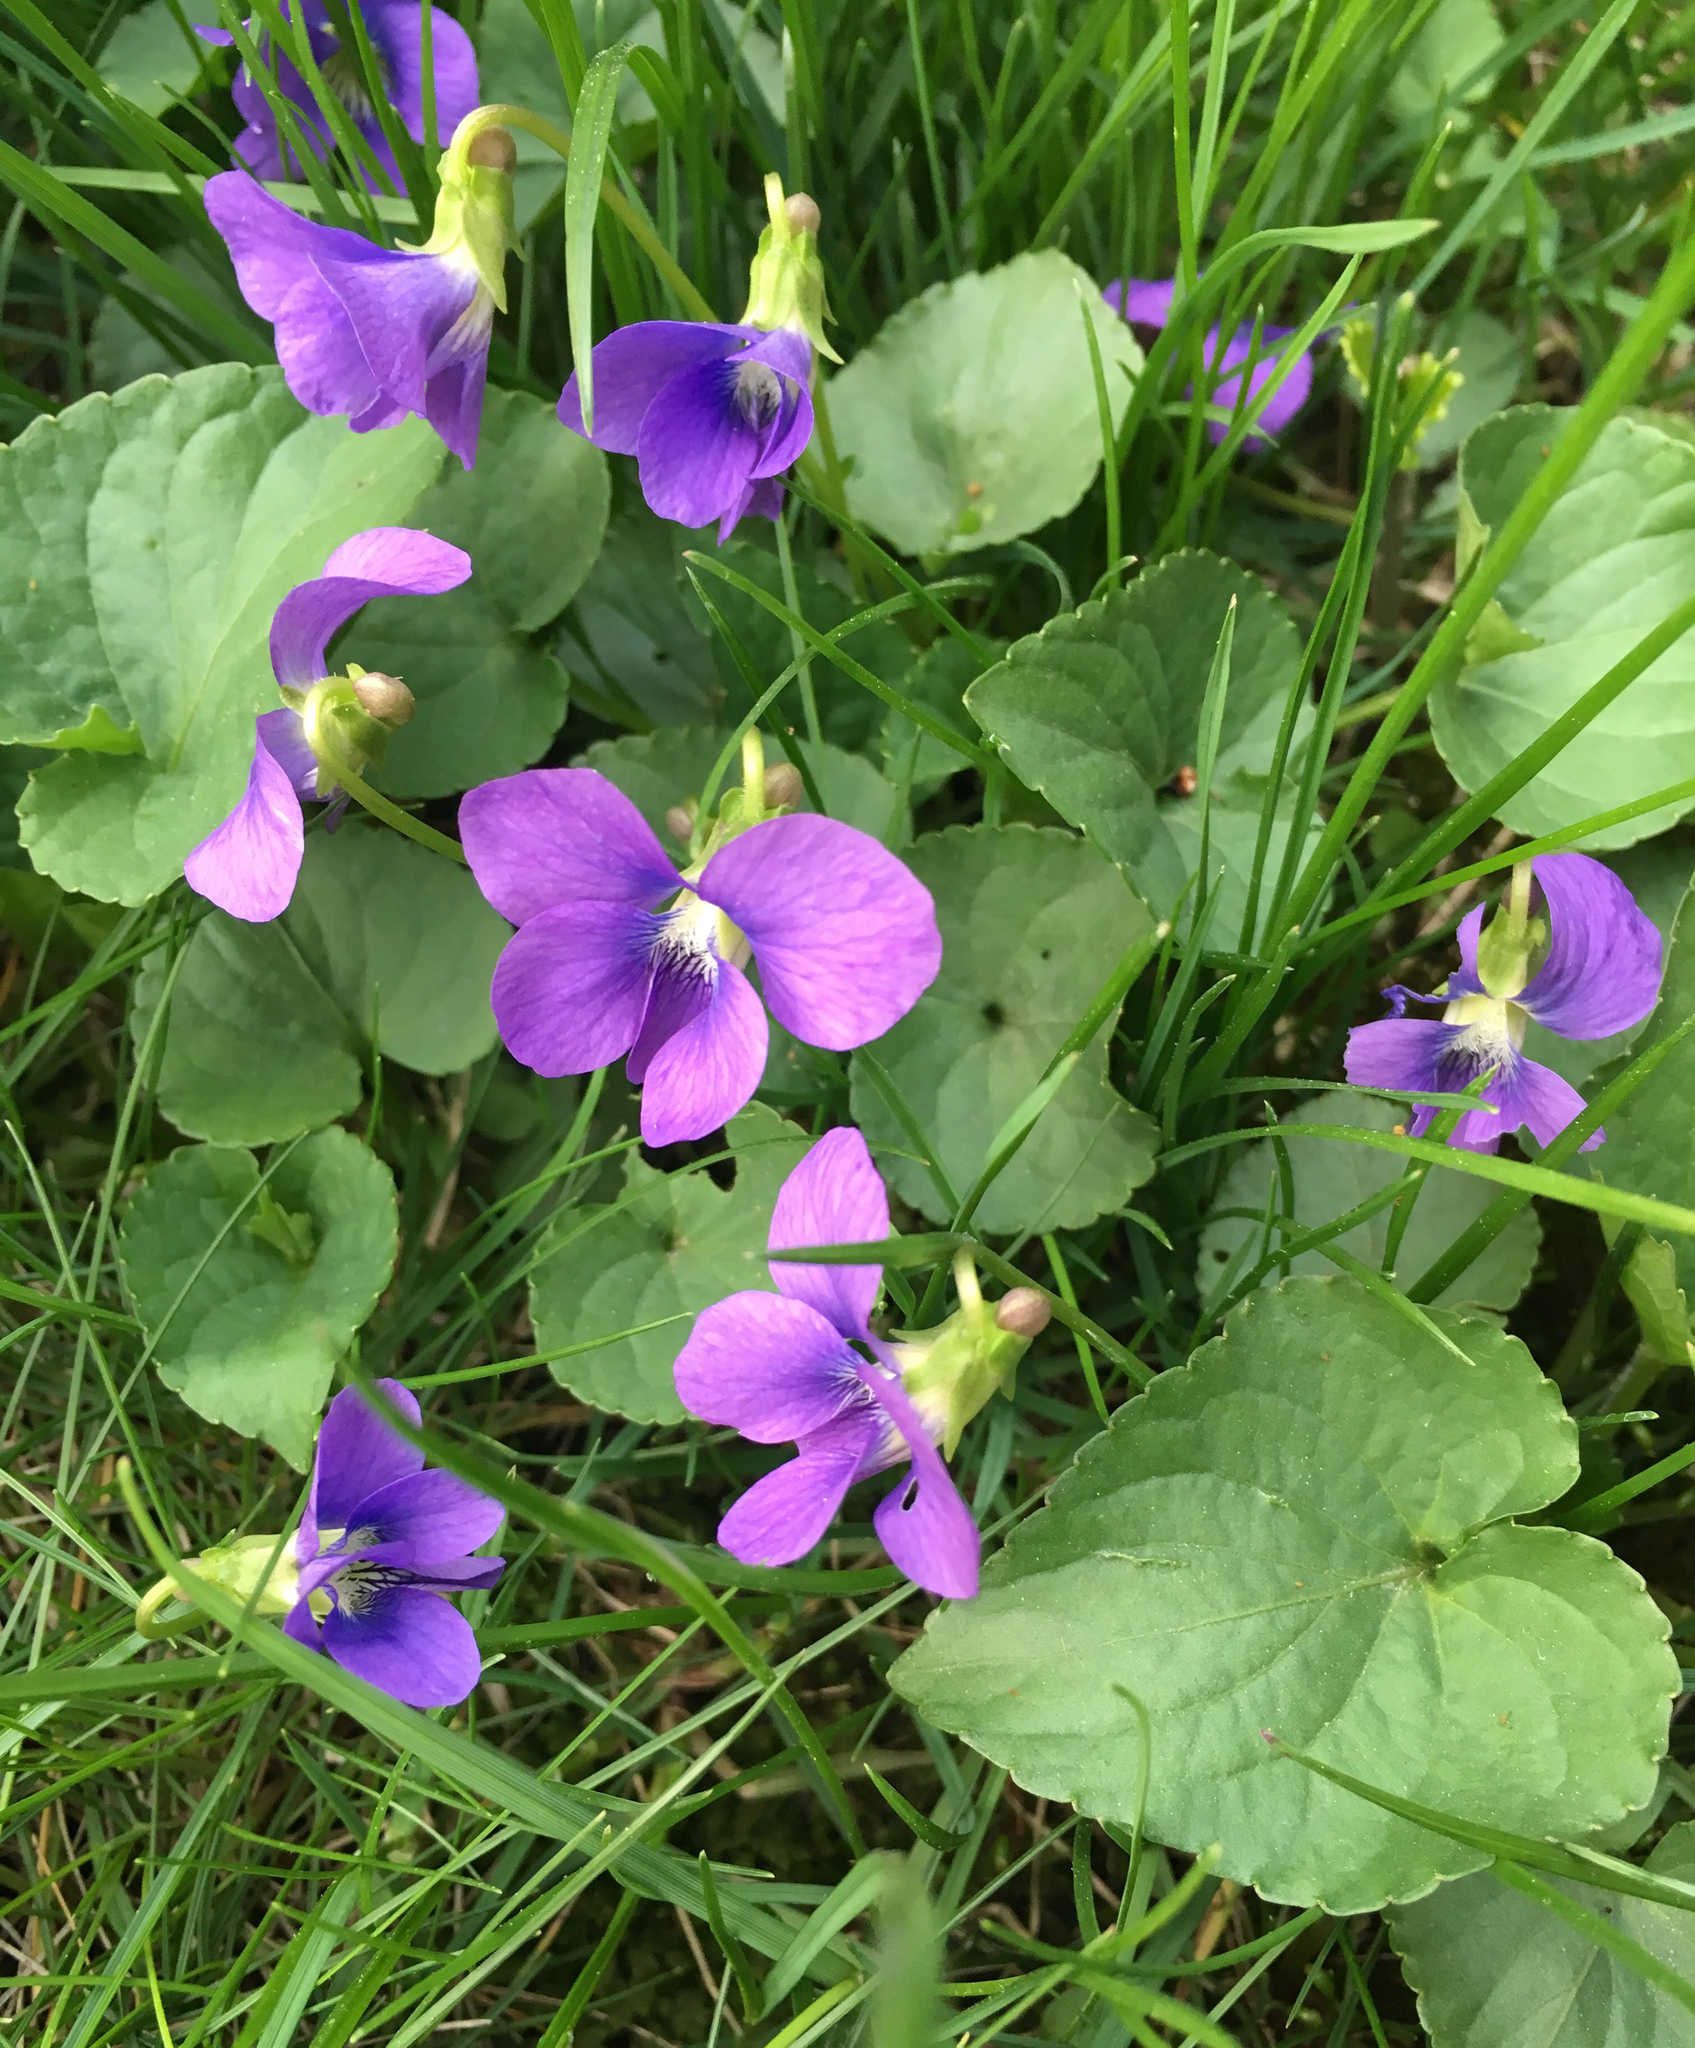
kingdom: Plantae
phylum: Tracheophyta
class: Magnoliopsida
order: Malpighiales
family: Violaceae
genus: Viola
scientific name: Viola sororia
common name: Dooryard violet
